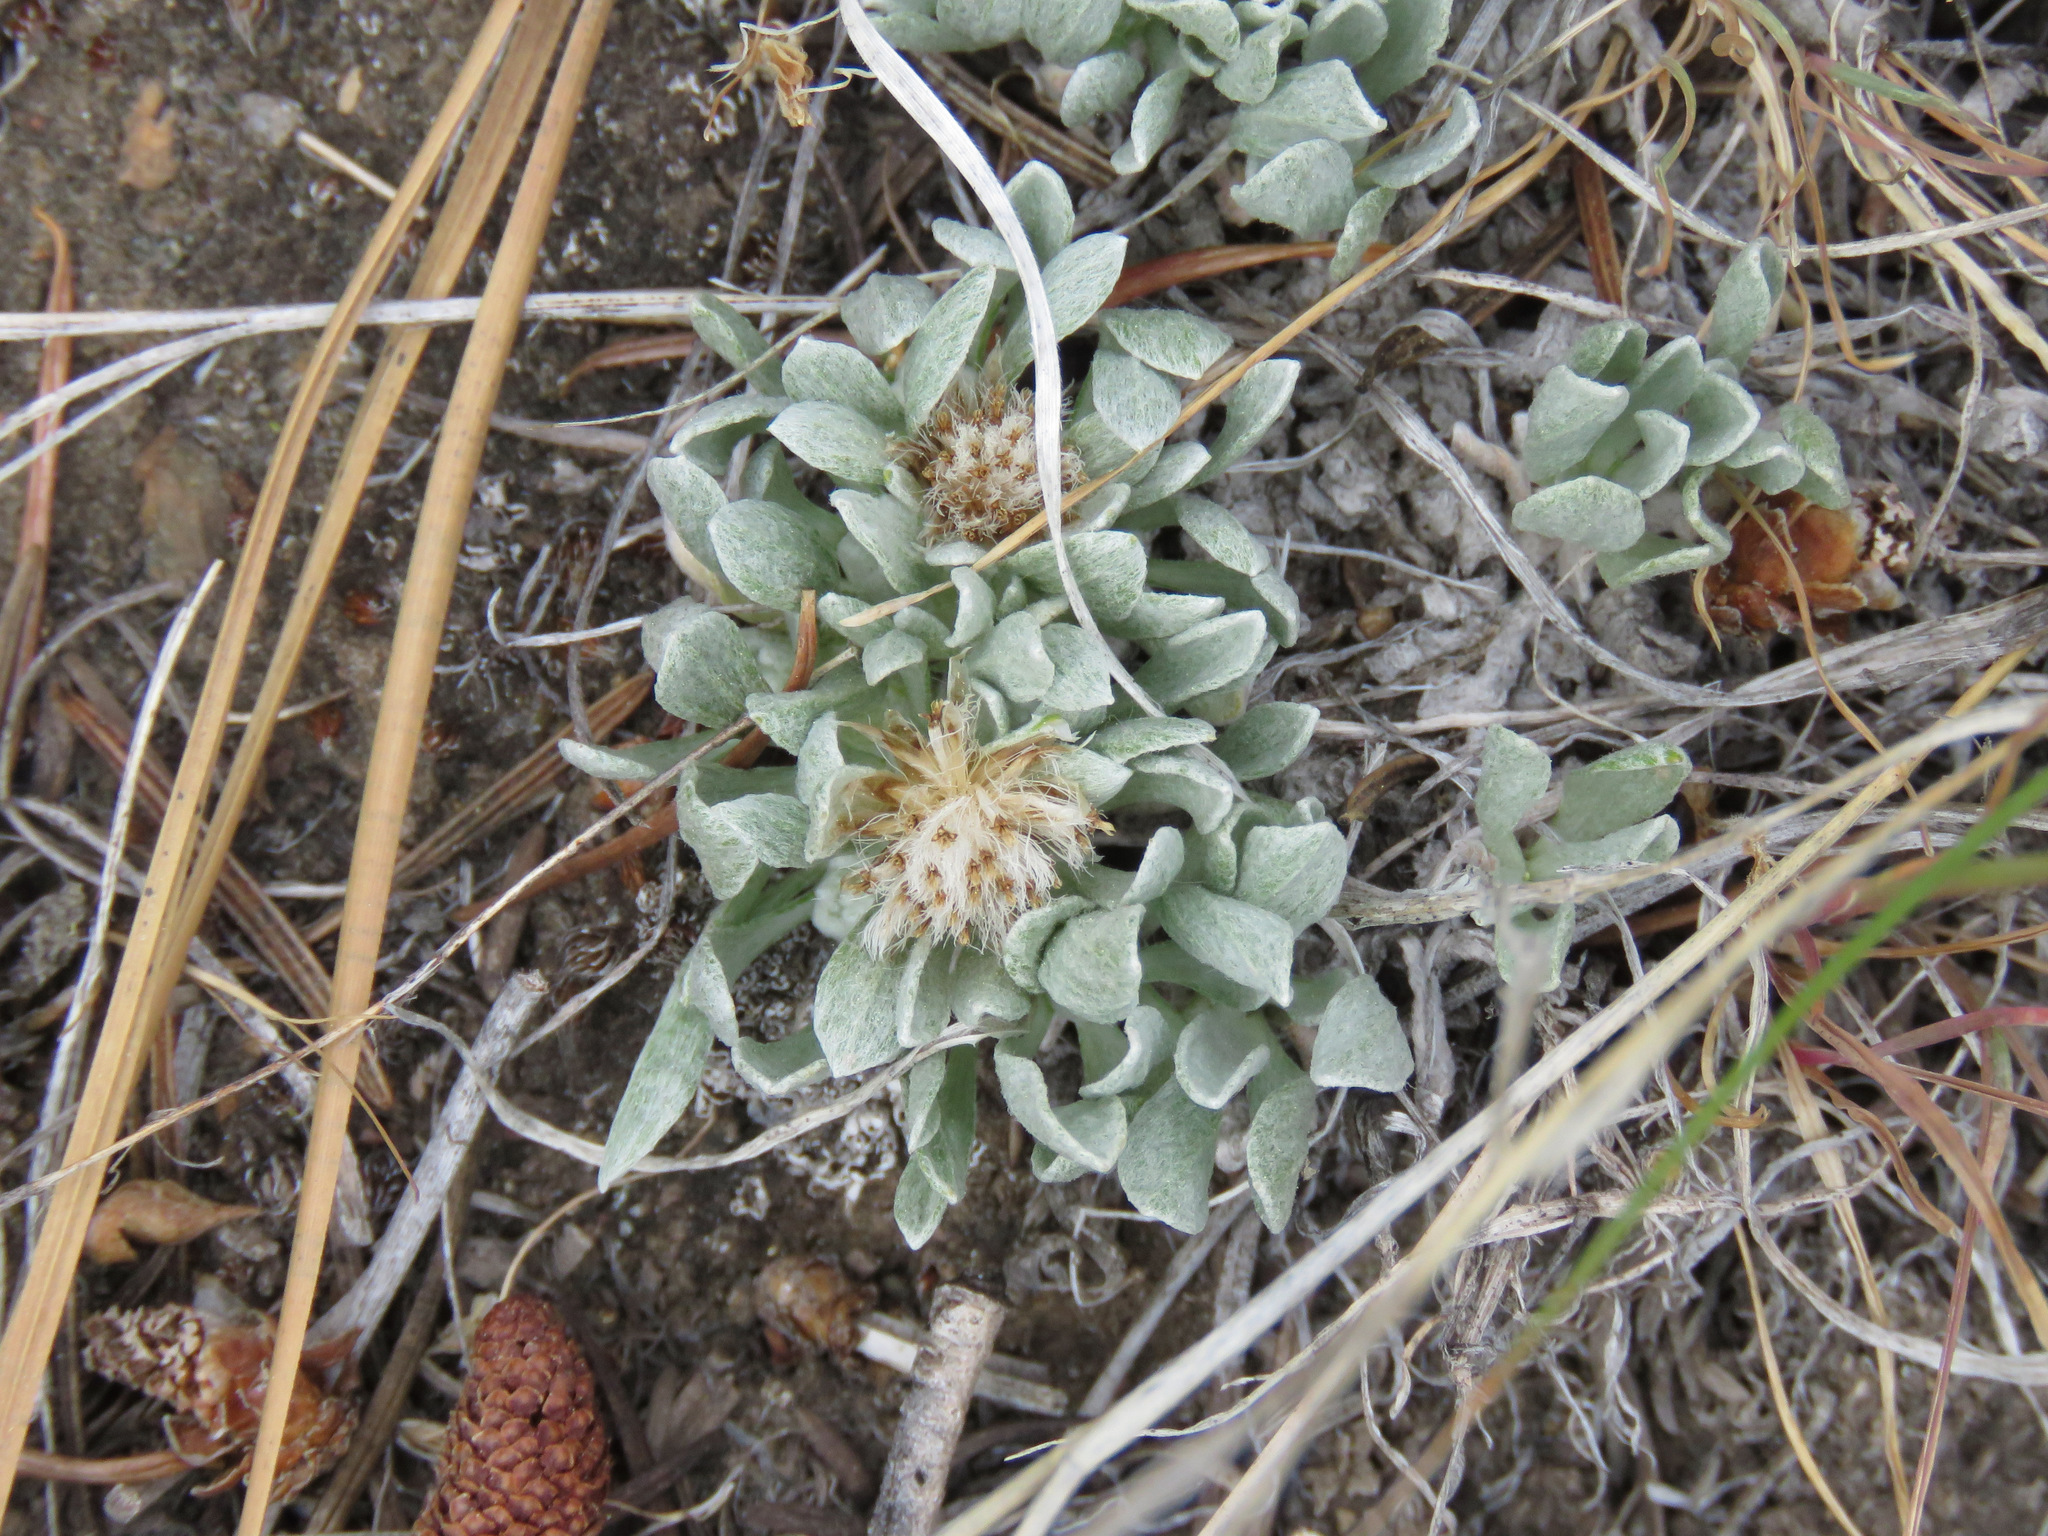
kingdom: Plantae
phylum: Tracheophyta
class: Magnoliopsida
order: Asterales
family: Asteraceae
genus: Antennaria
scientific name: Antennaria dimorpha
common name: Cushion pussytoes
